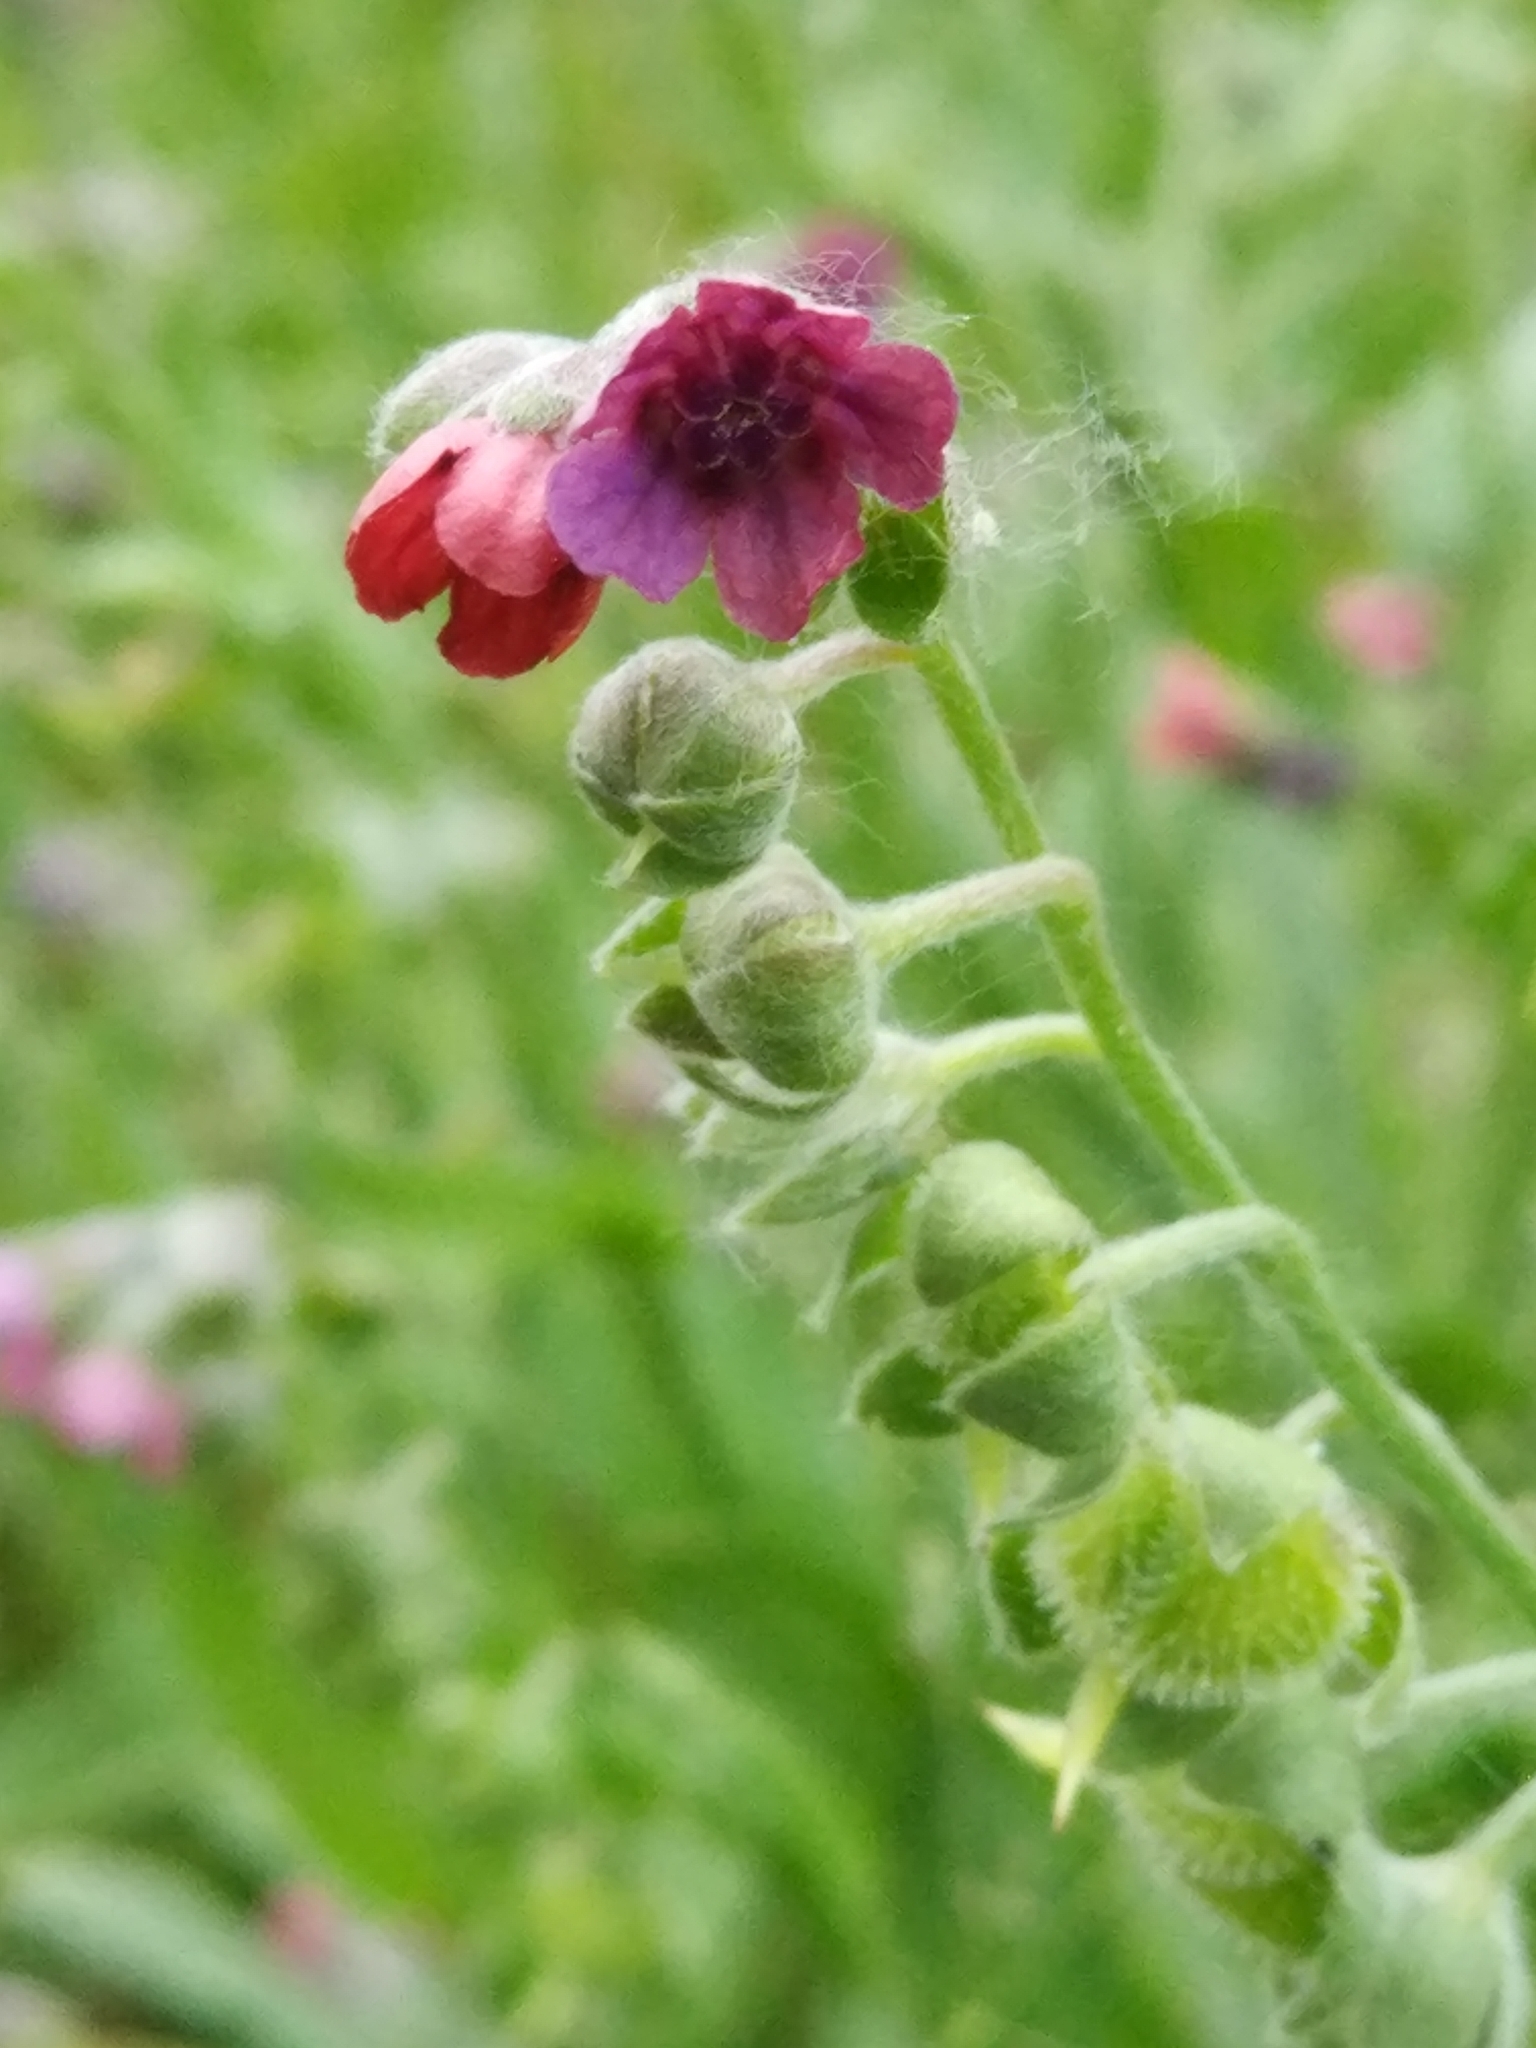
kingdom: Plantae
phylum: Tracheophyta
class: Magnoliopsida
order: Boraginales
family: Boraginaceae
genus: Cynoglossum
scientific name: Cynoglossum officinale
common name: Hound's-tongue
